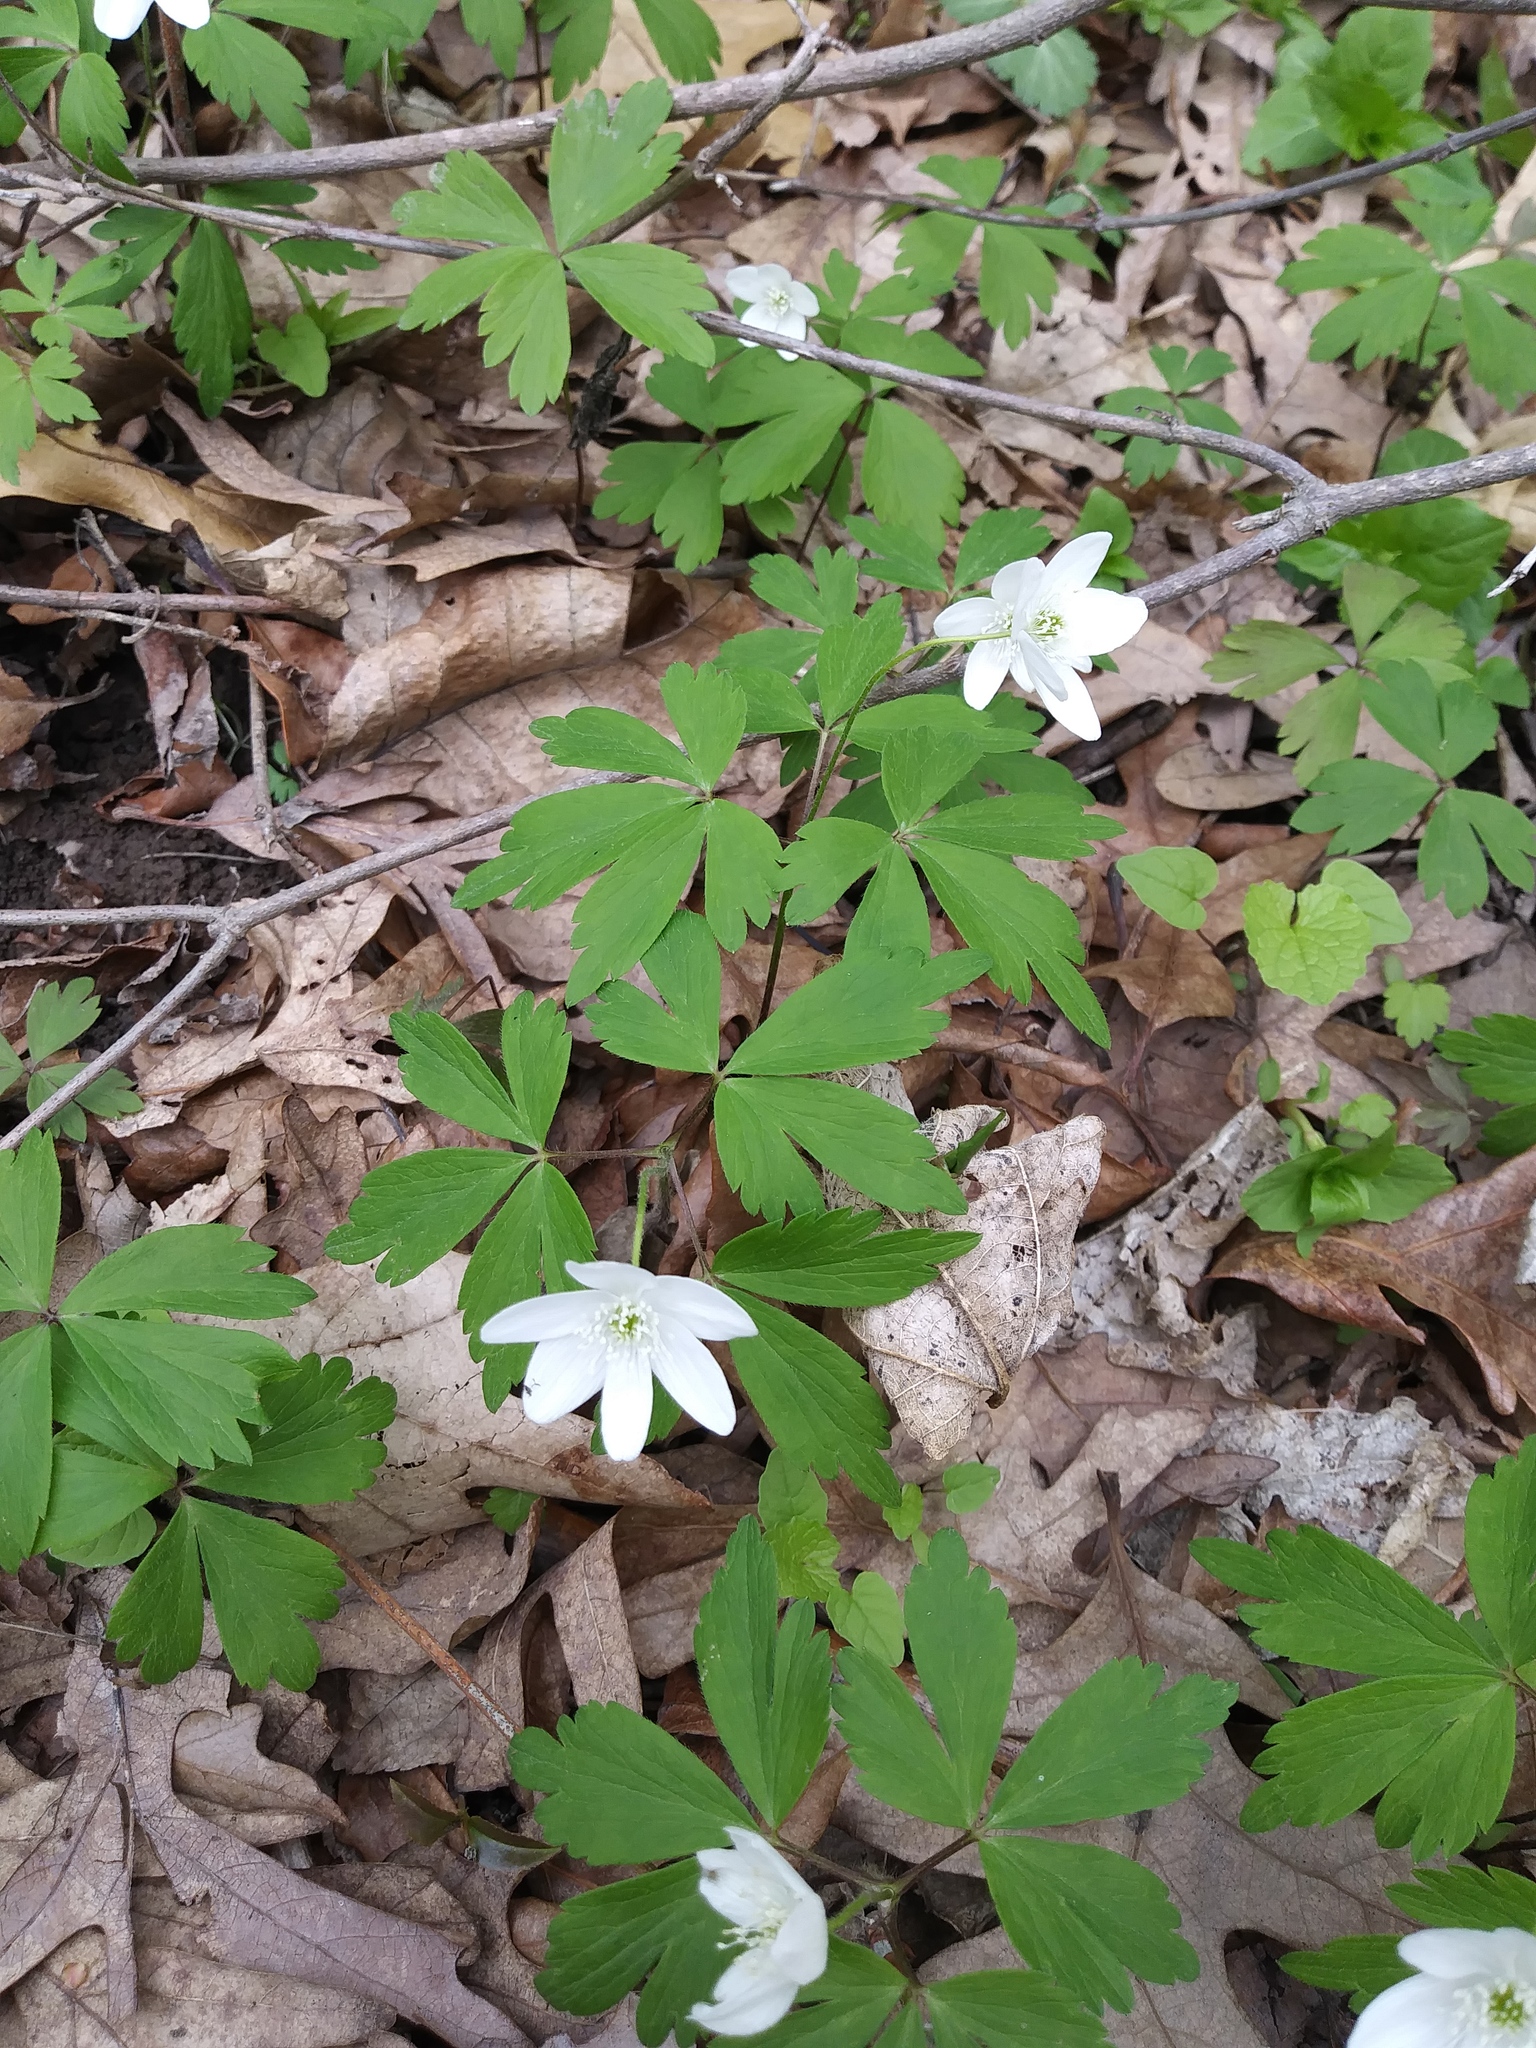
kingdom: Plantae
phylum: Tracheophyta
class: Magnoliopsida
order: Ranunculales
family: Ranunculaceae
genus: Anemone
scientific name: Anemone quinquefolia
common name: Wood anemone
